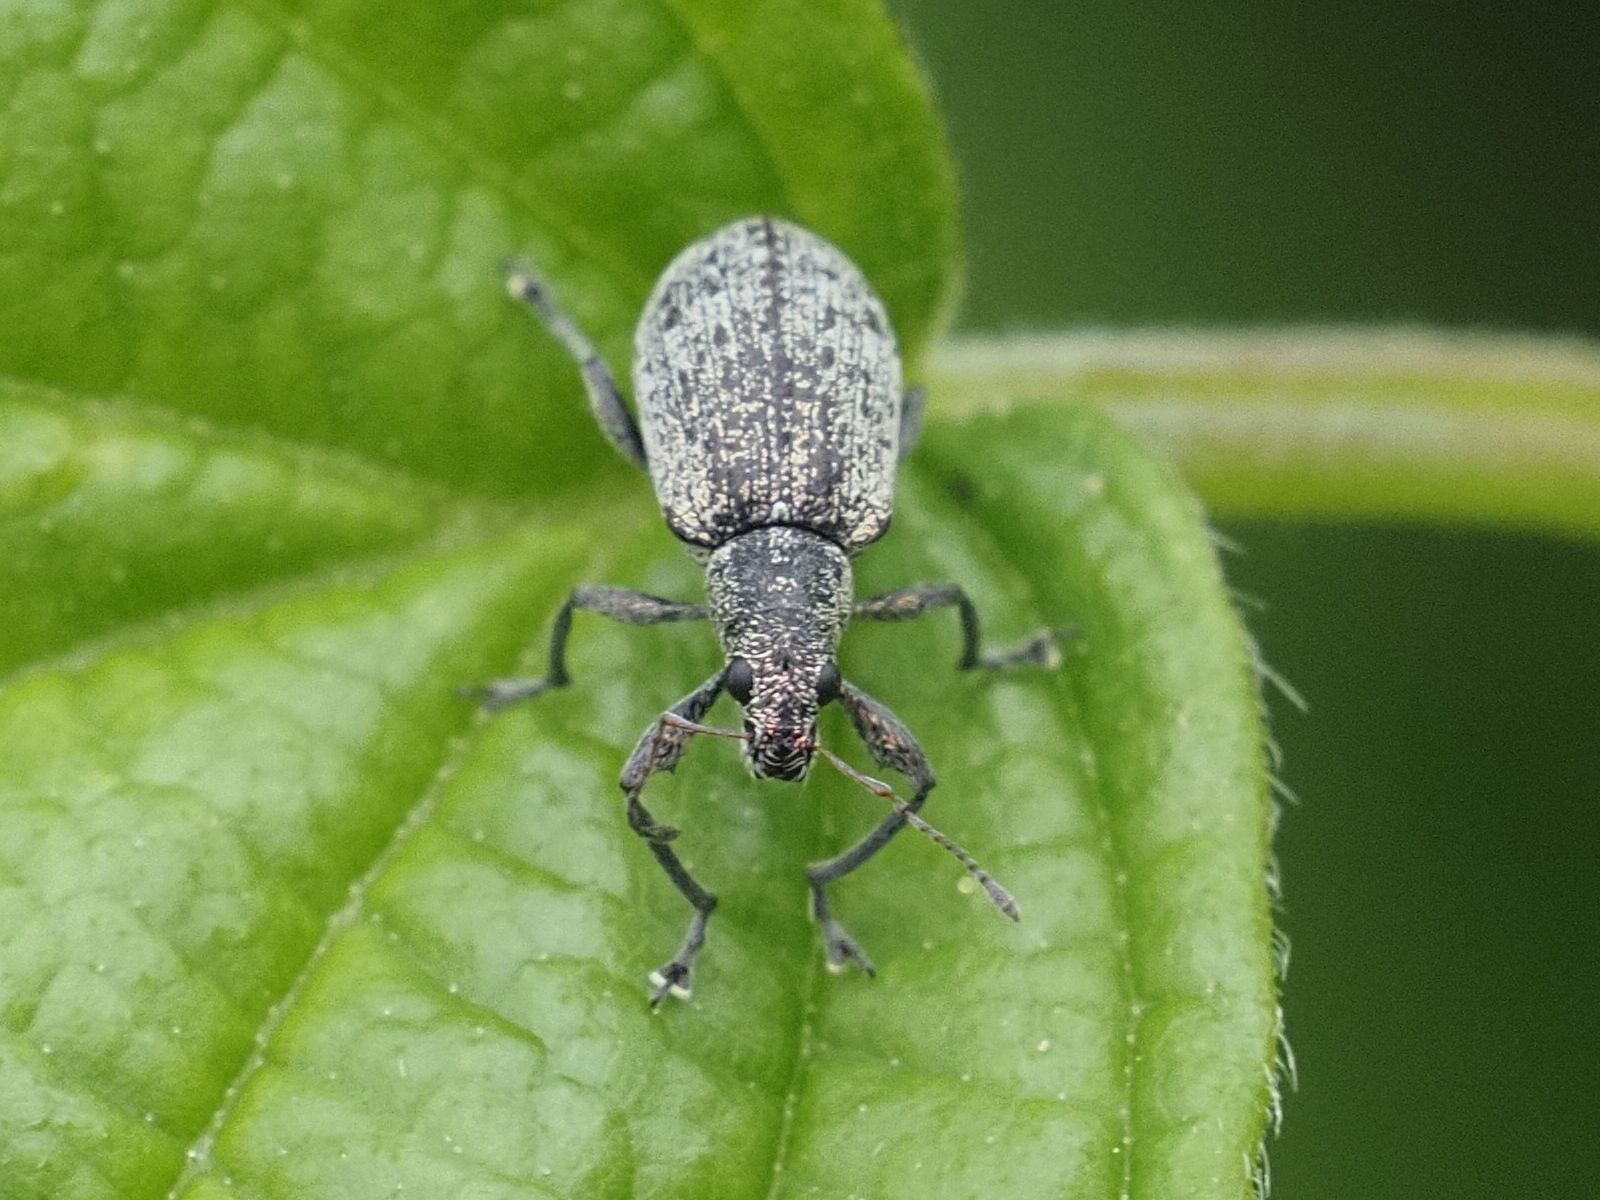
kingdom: Animalia
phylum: Arthropoda
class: Insecta
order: Coleoptera
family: Curculionidae
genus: Polydrusus
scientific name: Polydrusus cervinus
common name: Weevil
